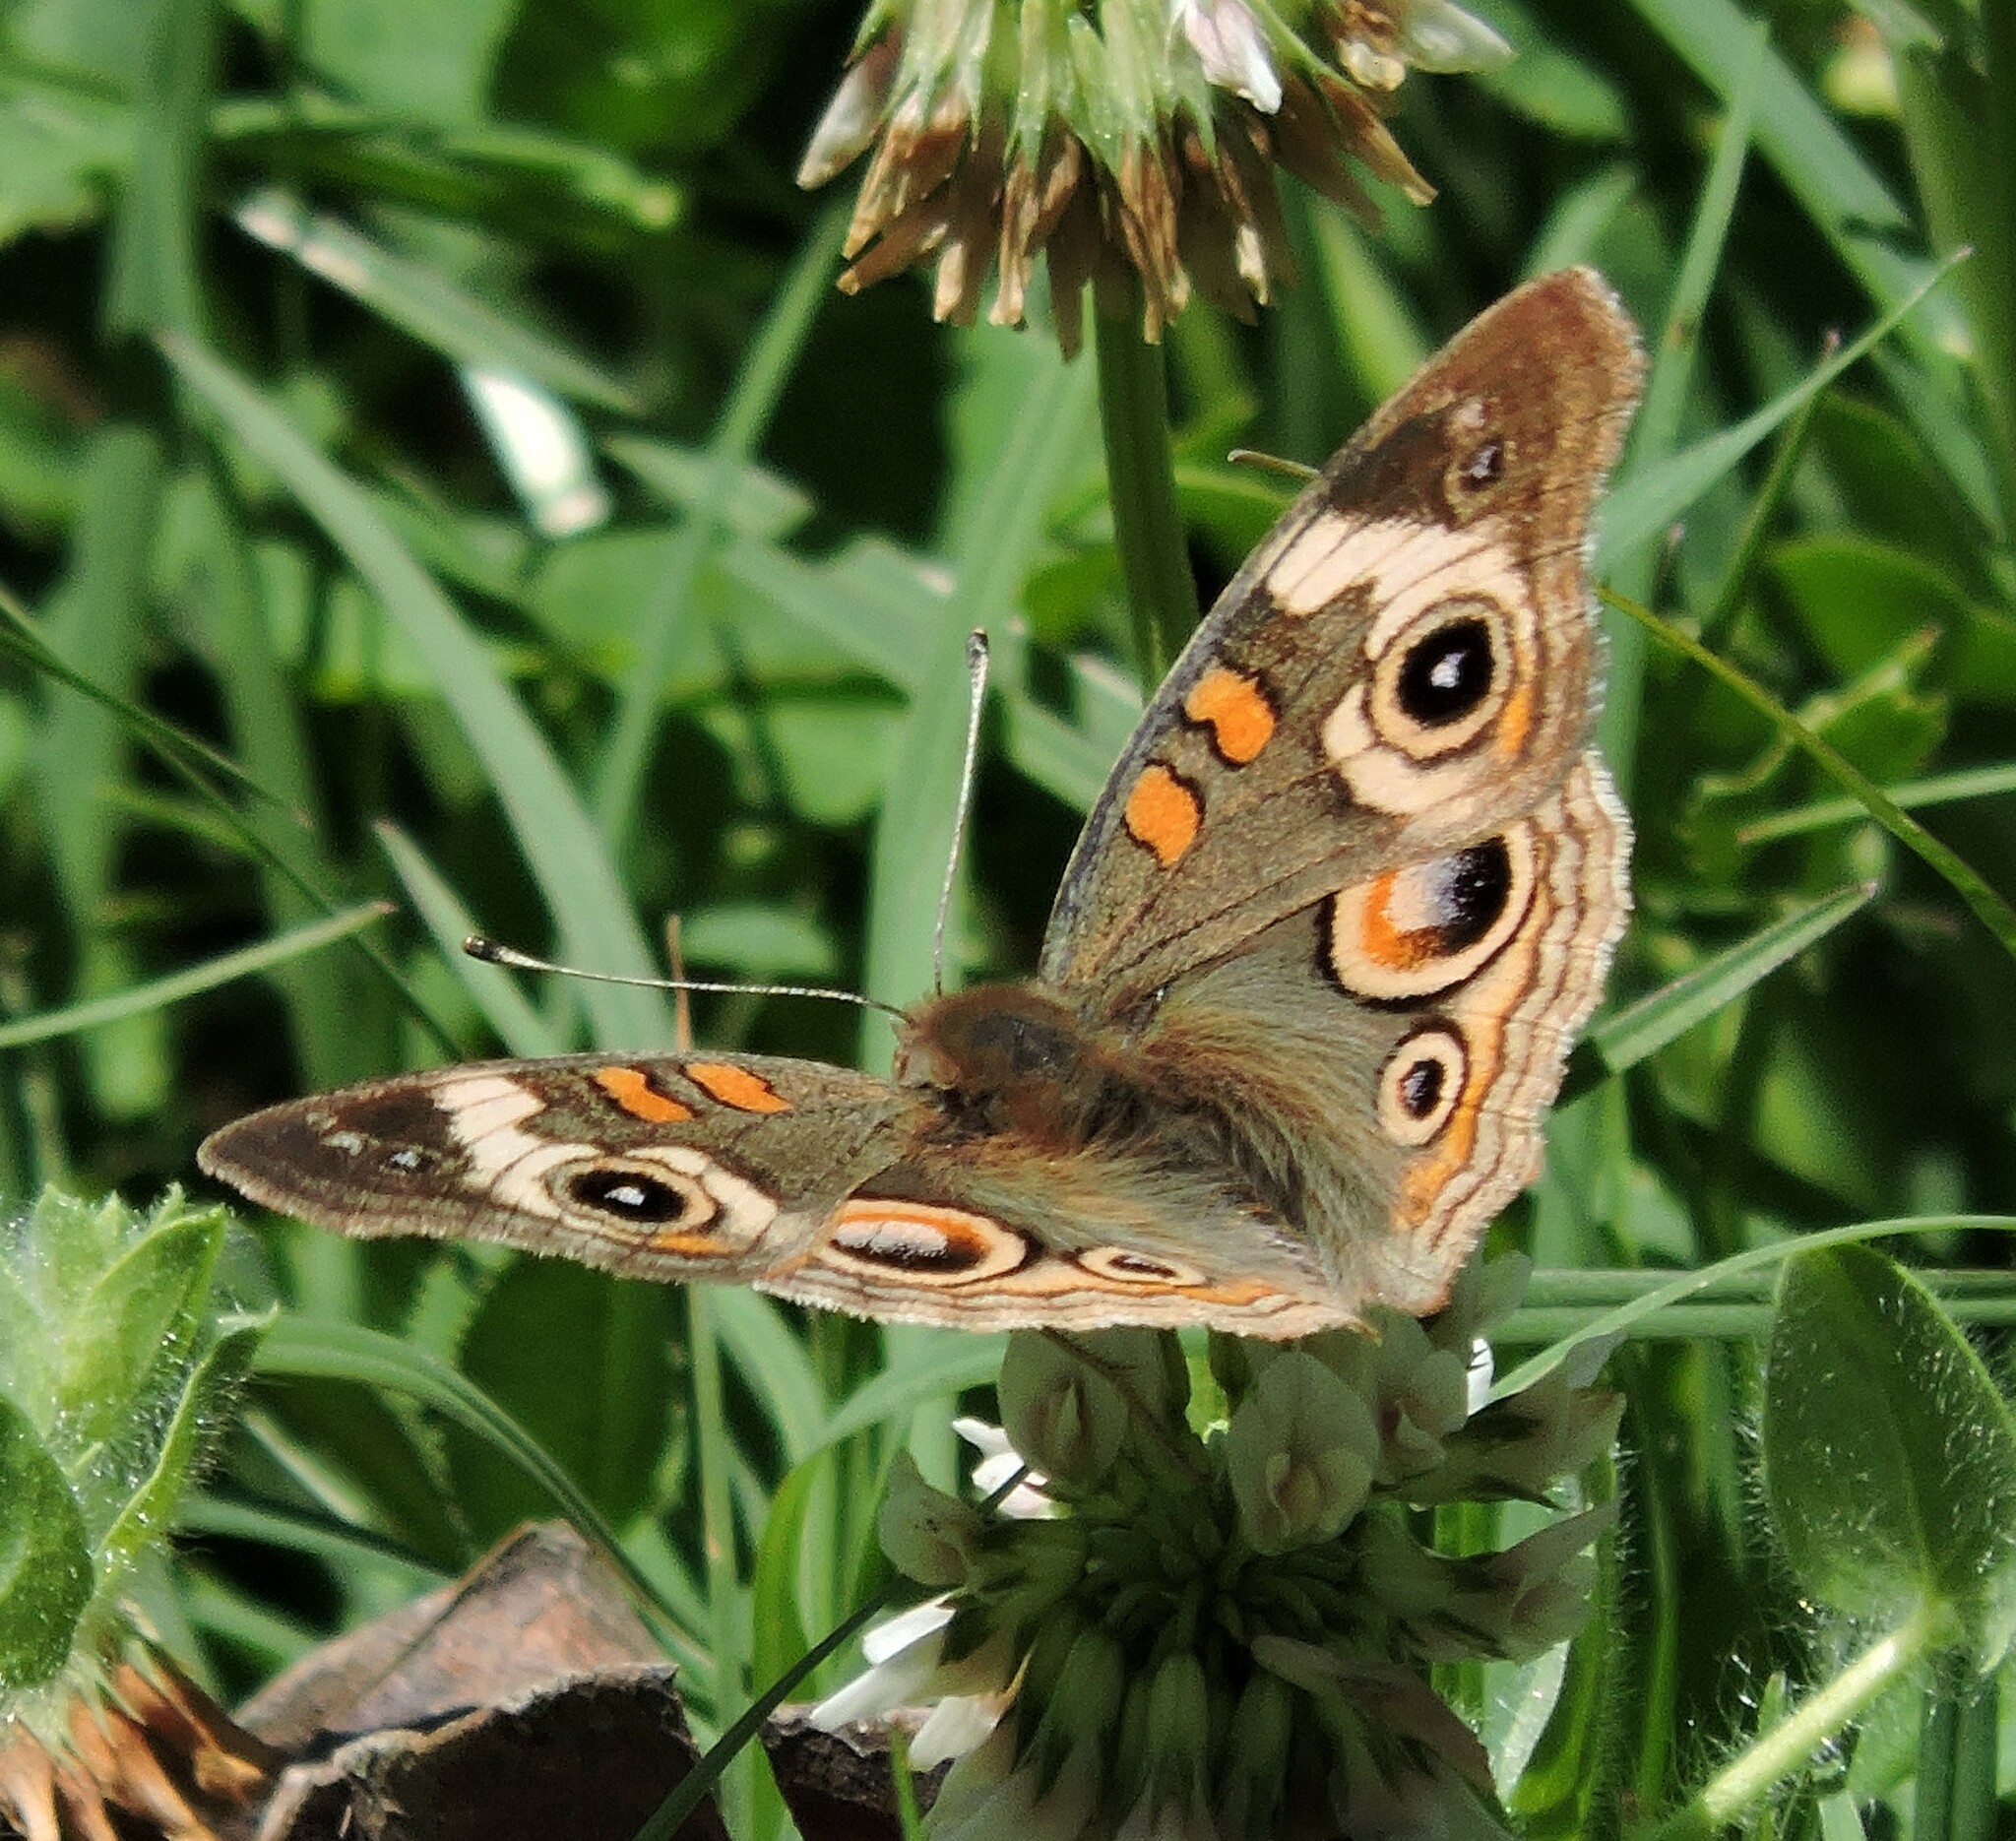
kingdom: Animalia
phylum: Arthropoda
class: Insecta
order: Lepidoptera
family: Nymphalidae
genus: Junonia
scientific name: Junonia grisea
